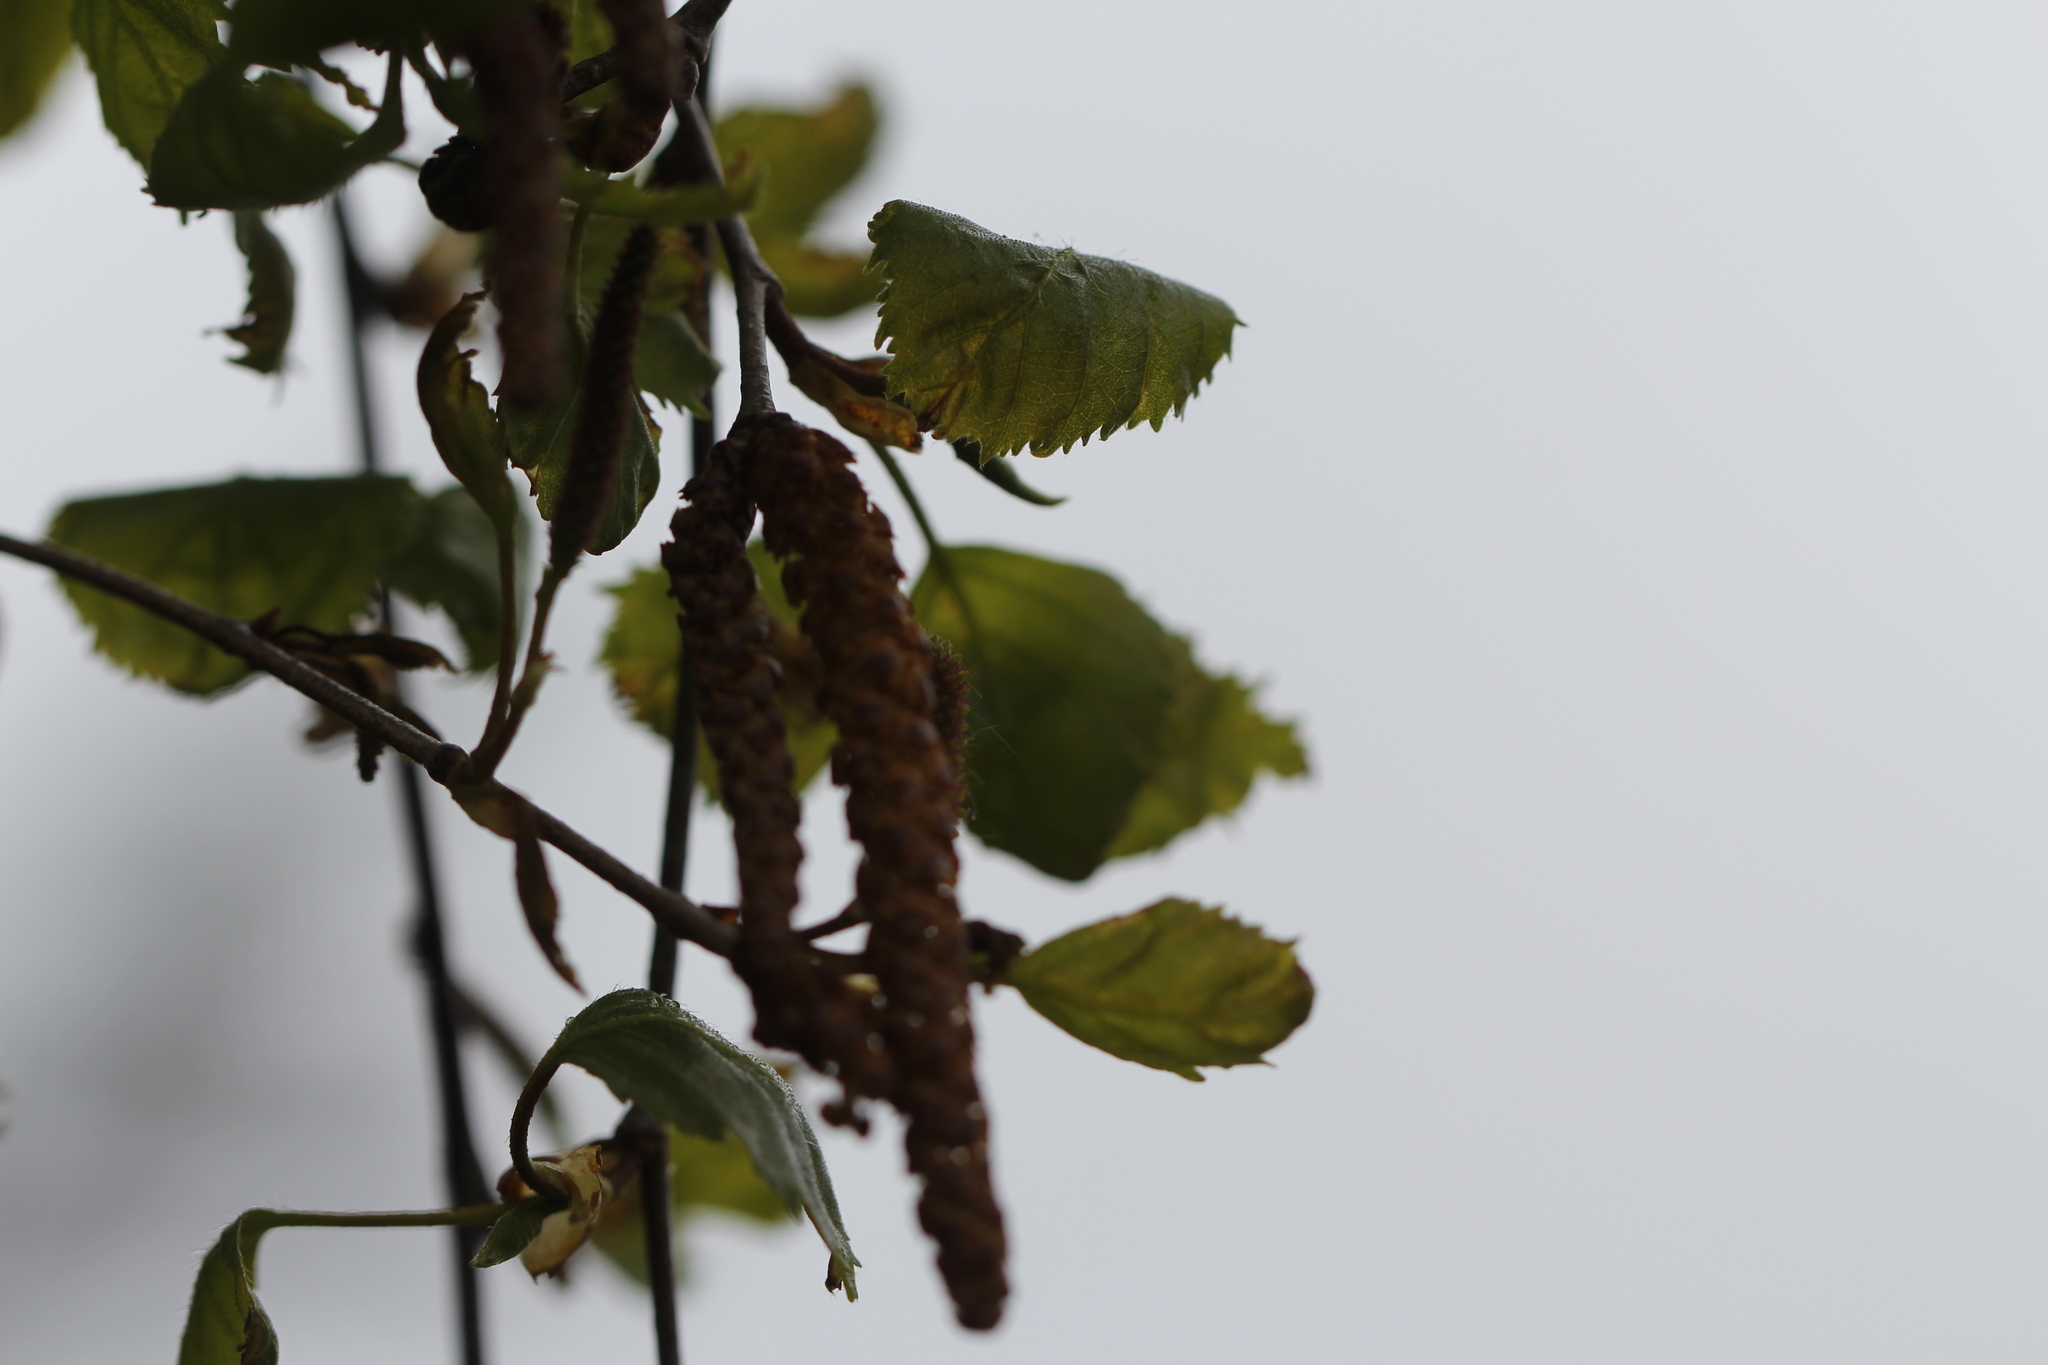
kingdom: Plantae
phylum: Tracheophyta
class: Magnoliopsida
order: Fagales
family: Betulaceae
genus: Betula
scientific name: Betula pendula
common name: Silver birch
